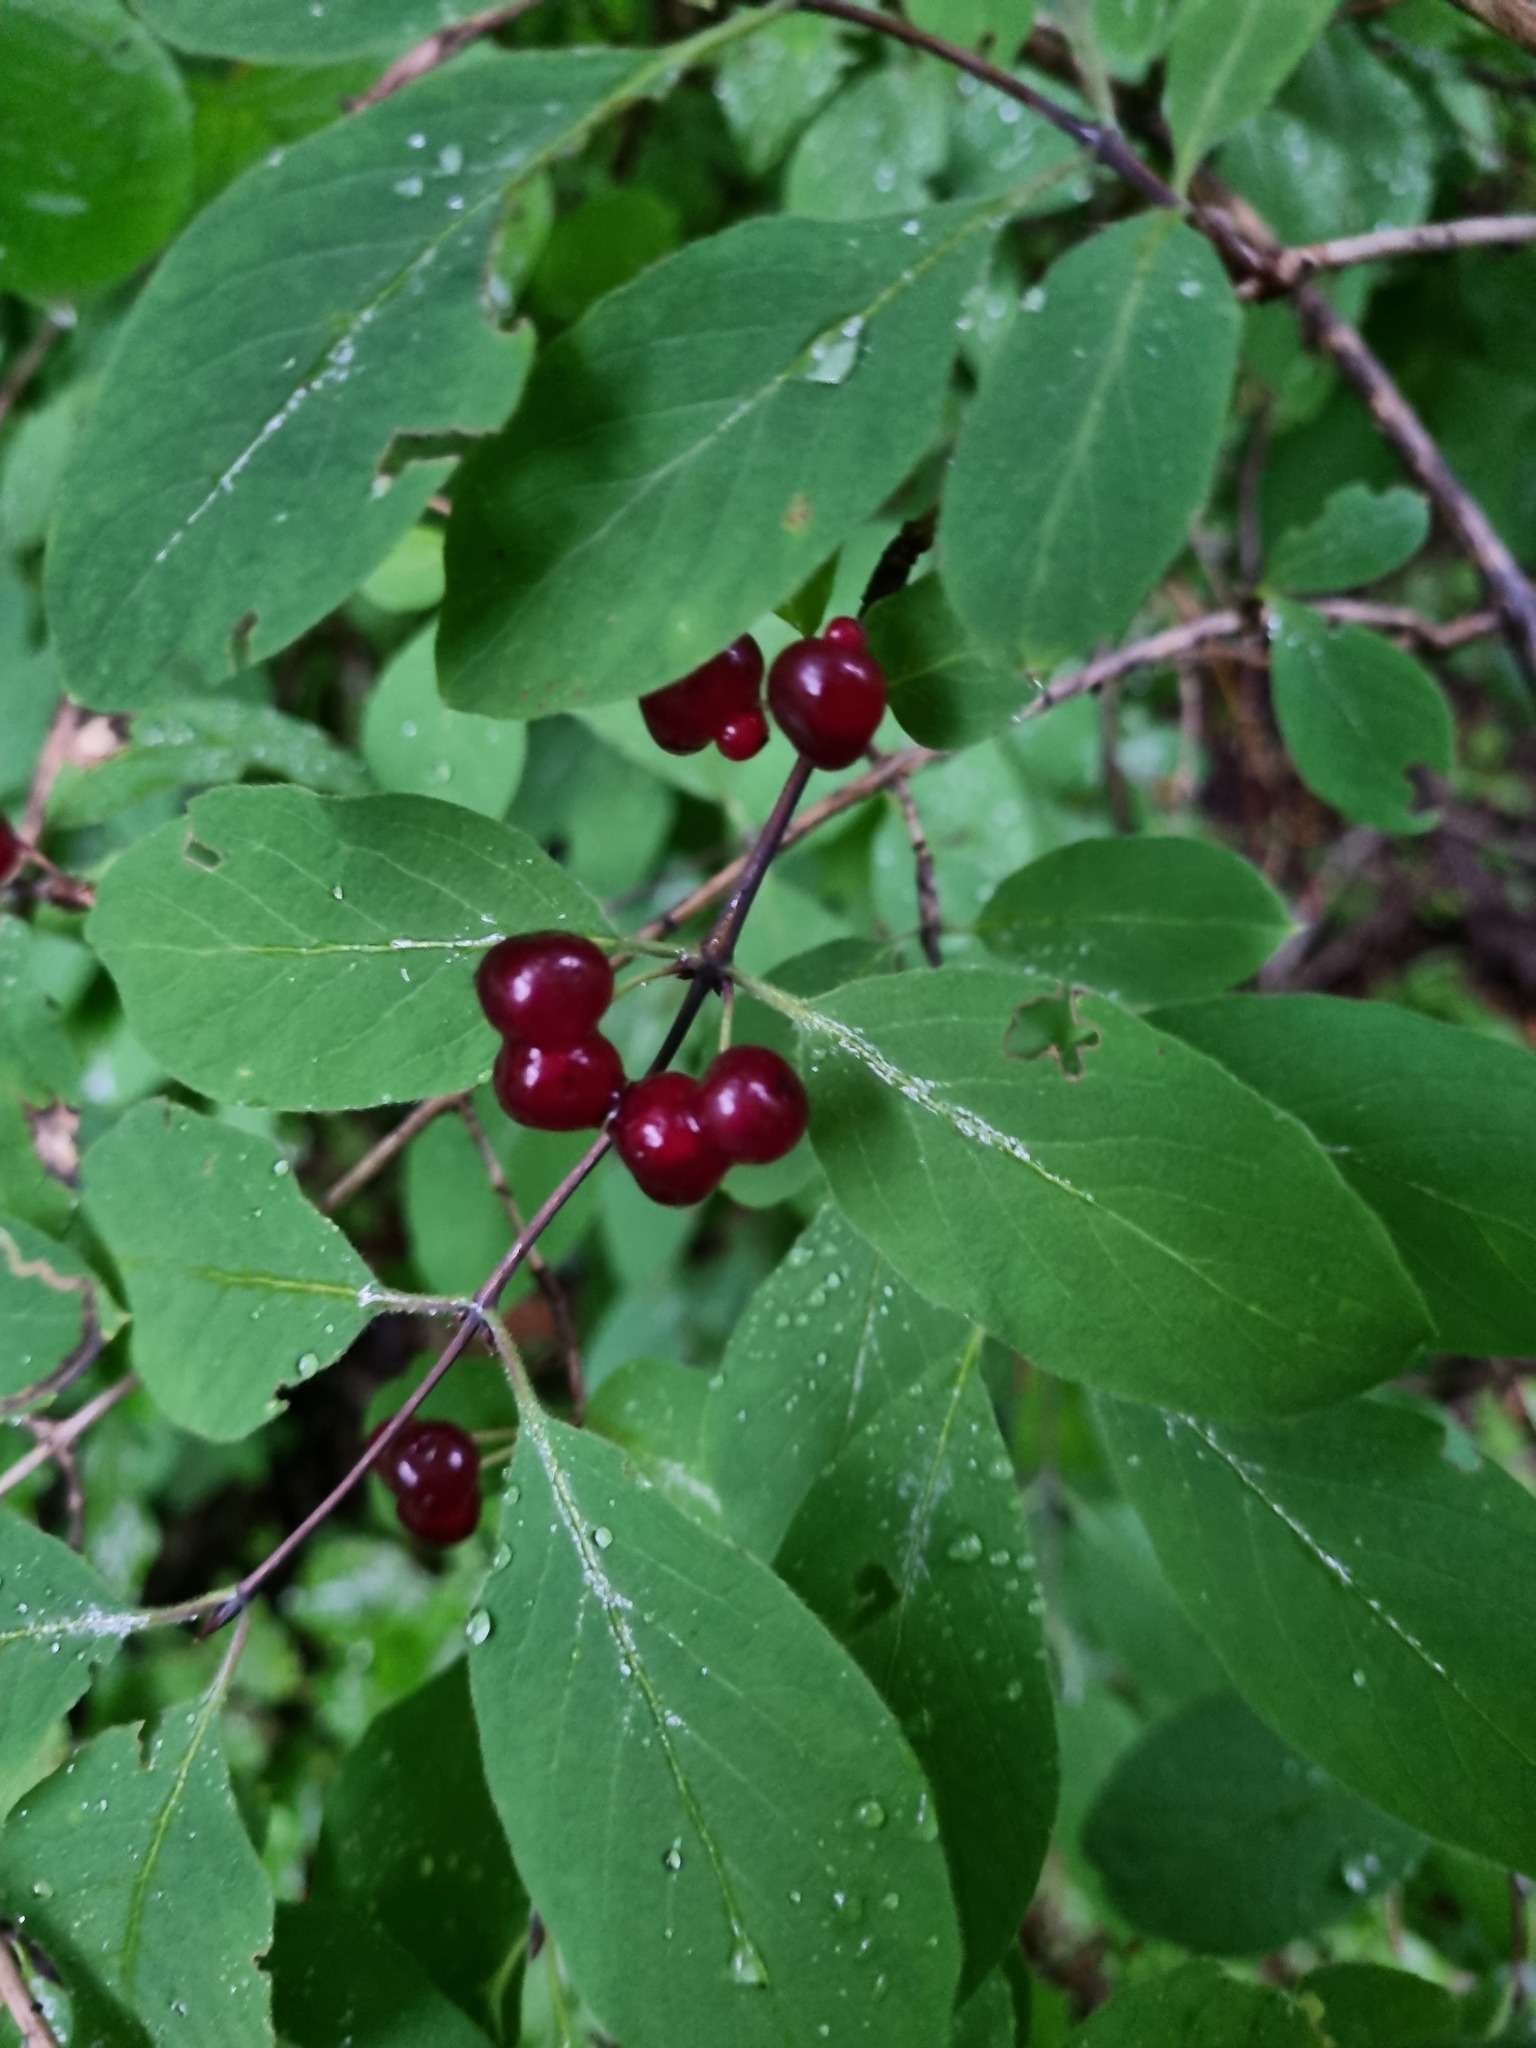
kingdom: Plantae
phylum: Tracheophyta
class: Magnoliopsida
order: Dipsacales
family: Caprifoliaceae
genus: Lonicera
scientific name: Lonicera steveniana
